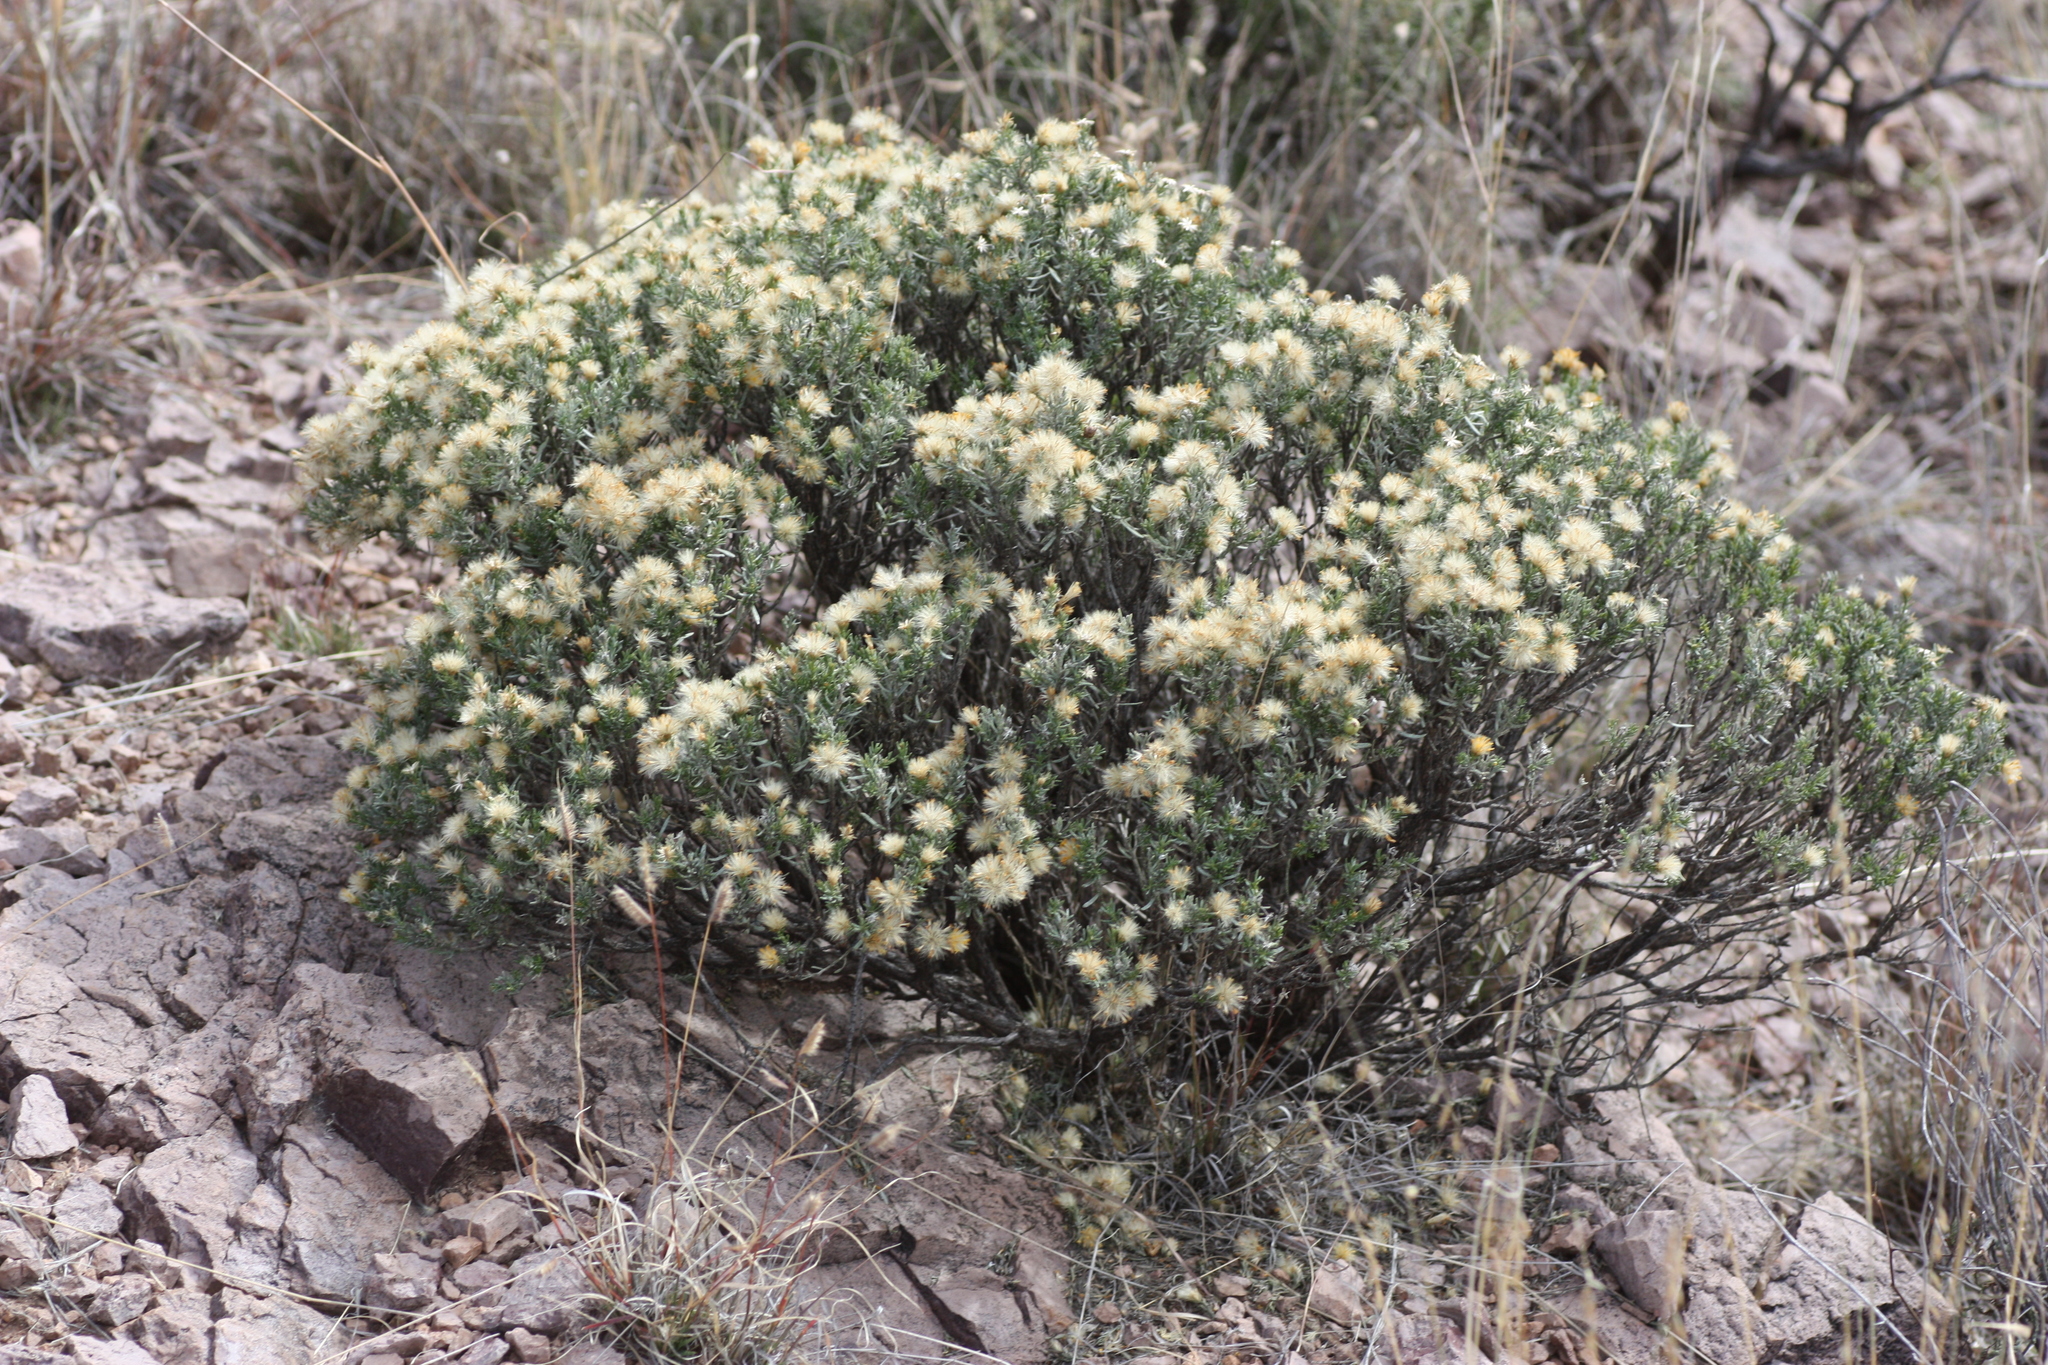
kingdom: Plantae
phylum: Tracheophyta
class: Magnoliopsida
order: Asterales
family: Asteraceae
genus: Ericameria
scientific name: Ericameria laricifolia
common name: Turpentine-bush
